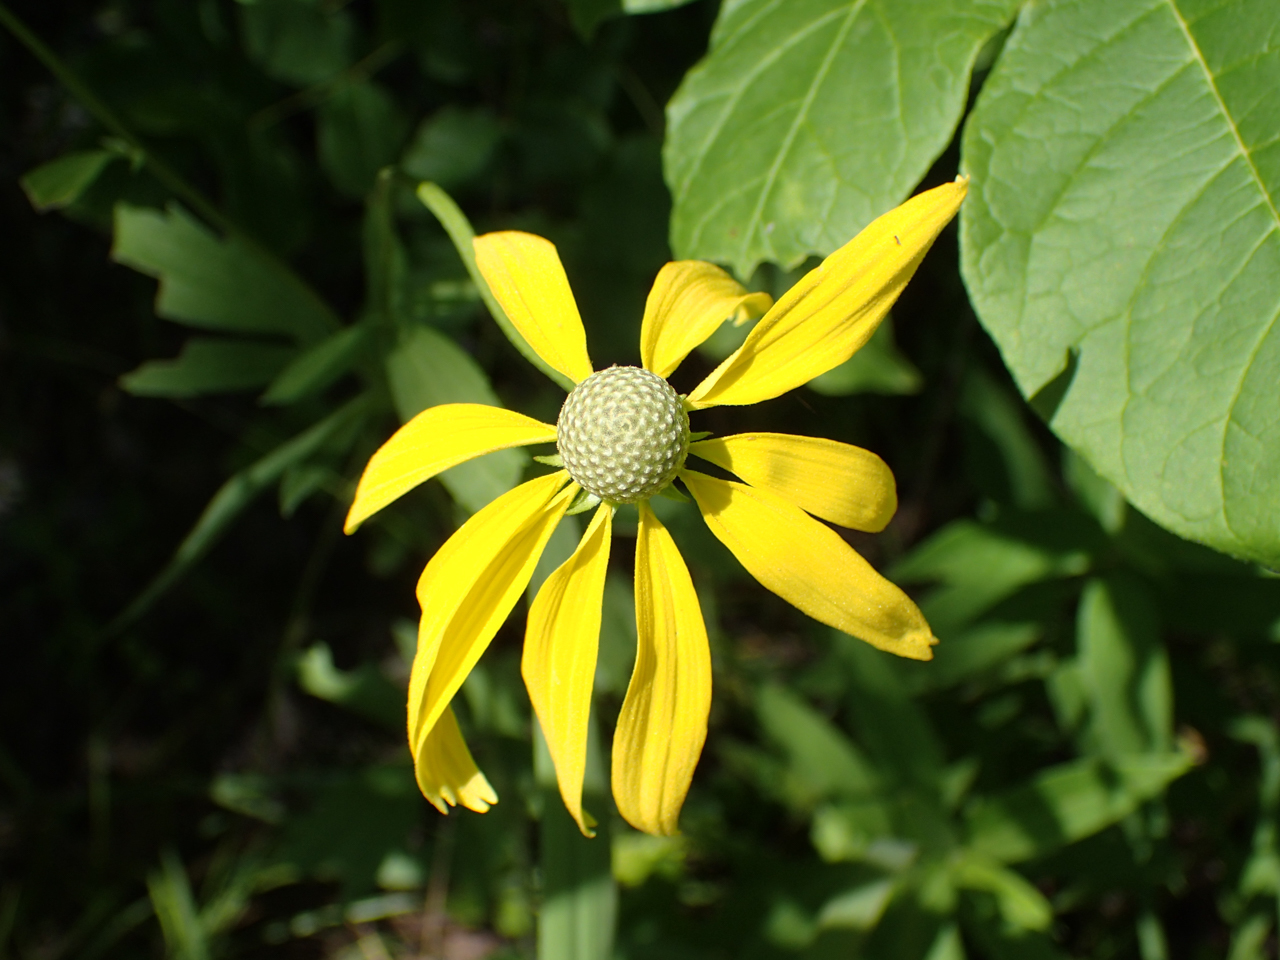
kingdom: Plantae
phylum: Tracheophyta
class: Magnoliopsida
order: Asterales
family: Asteraceae
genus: Ratibida
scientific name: Ratibida pinnata
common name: Drooping prairie-coneflower
